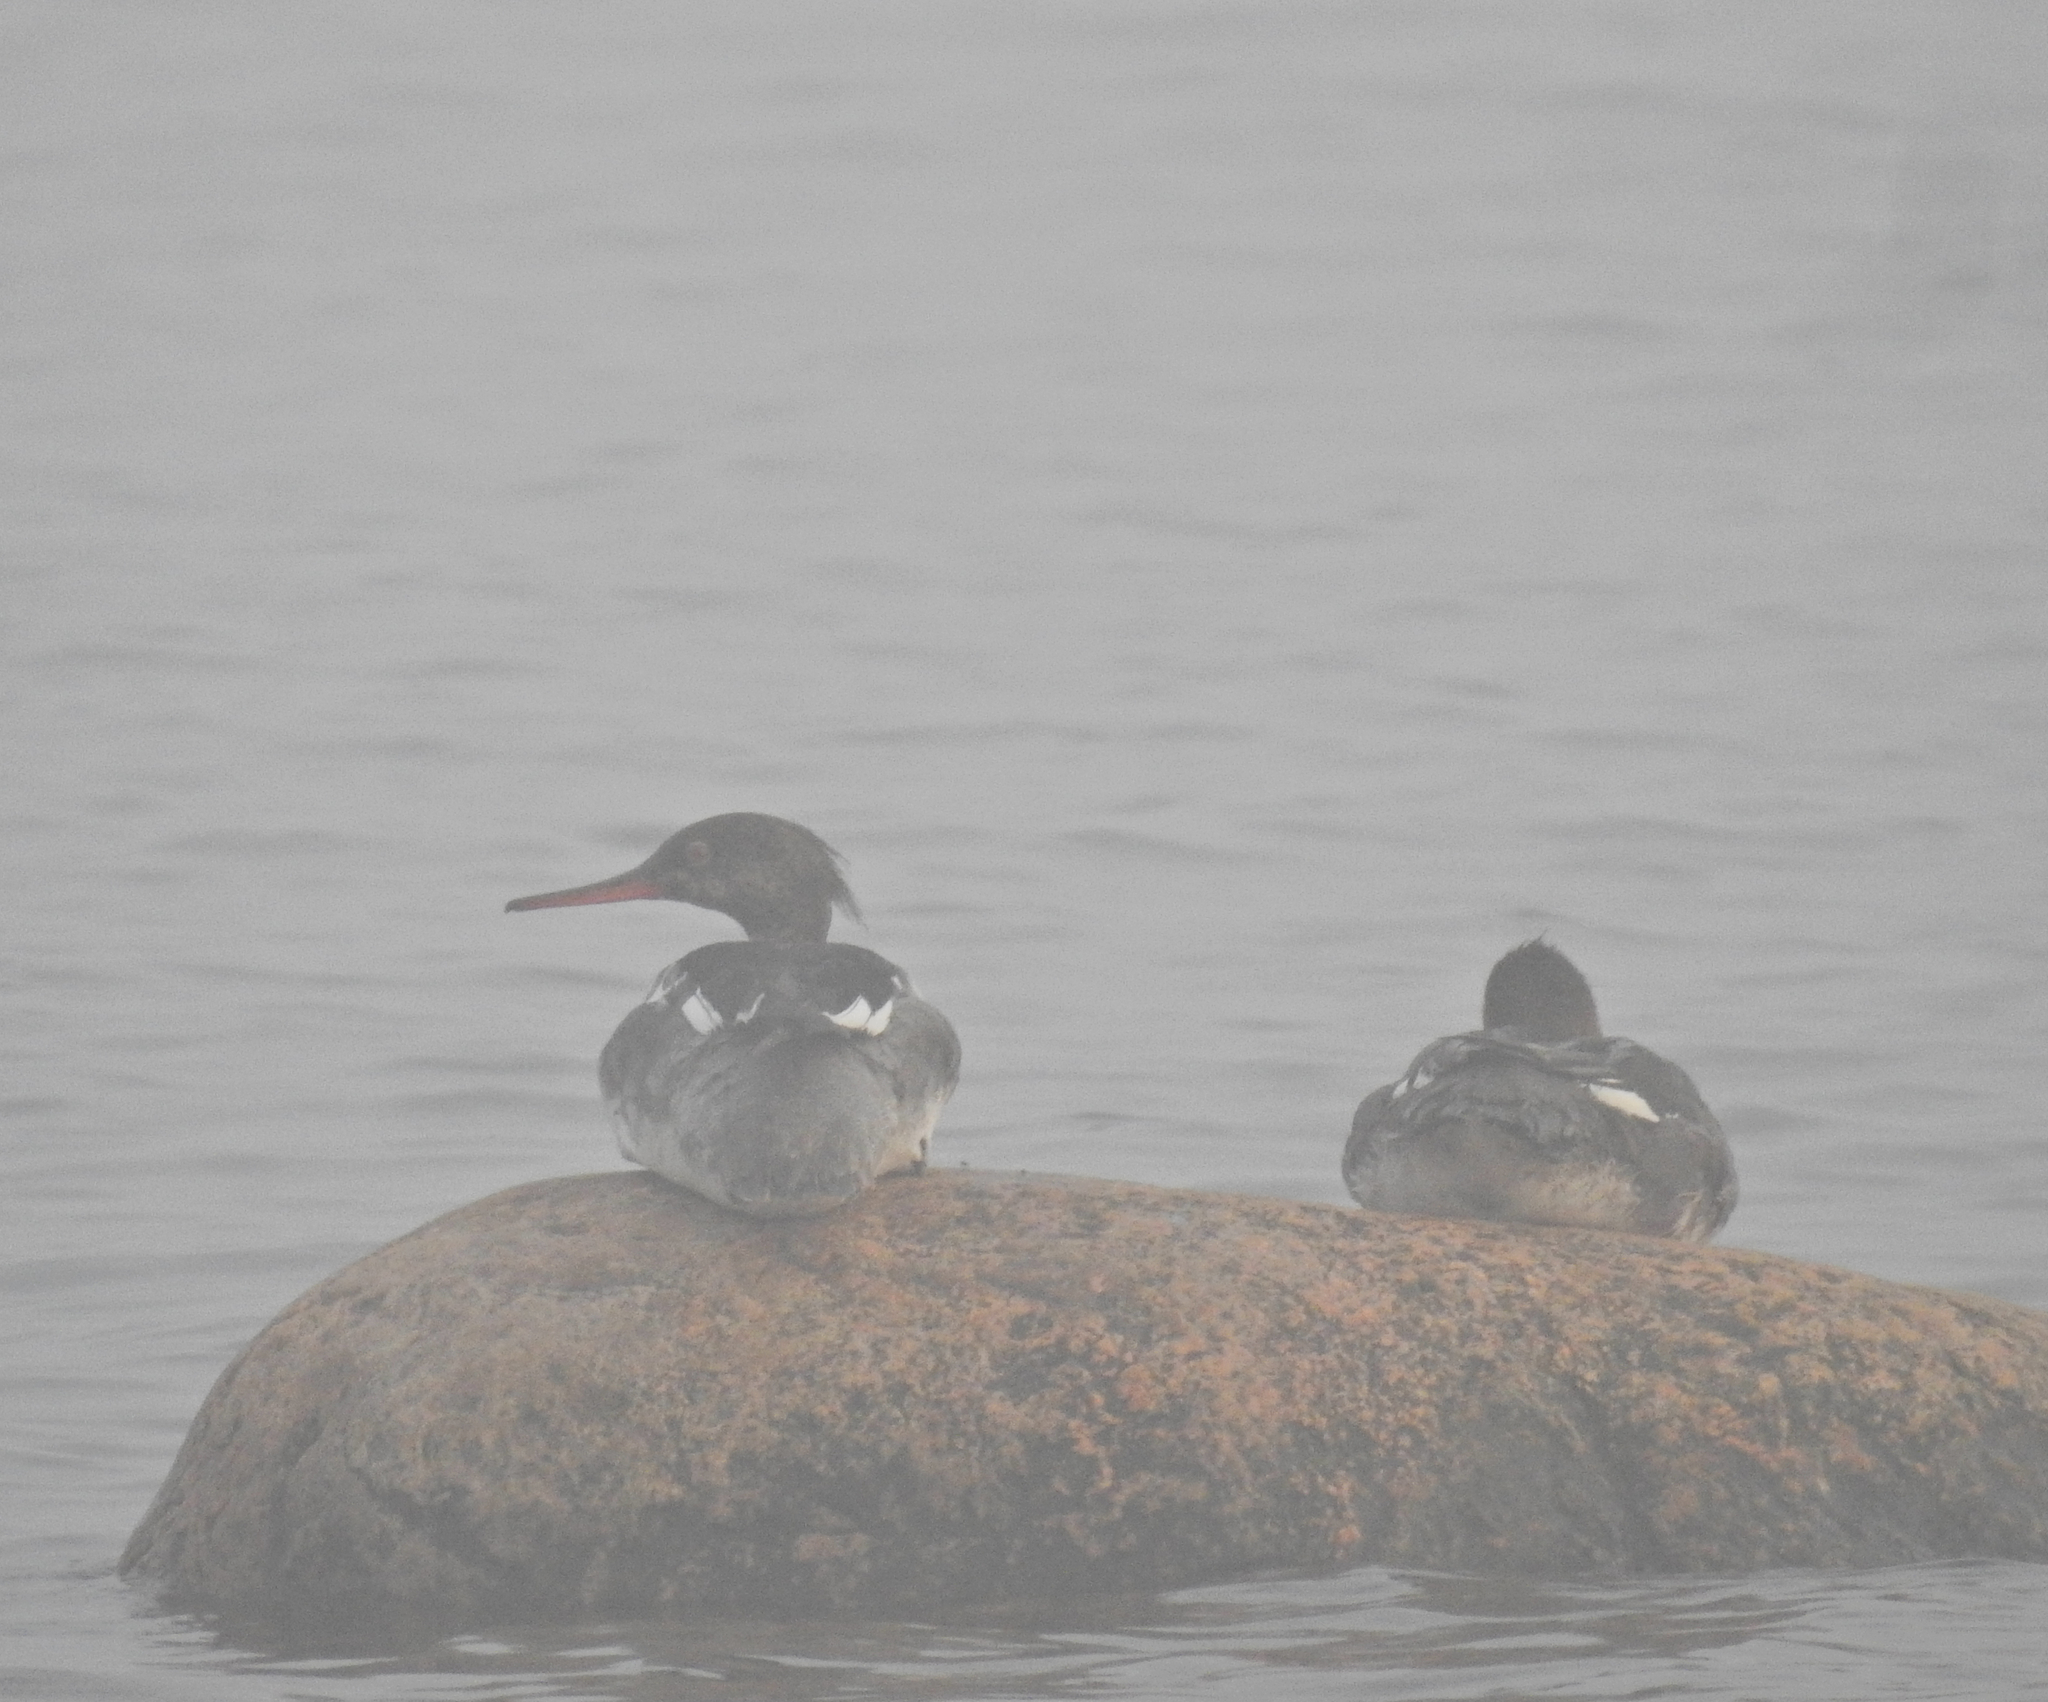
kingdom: Animalia
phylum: Chordata
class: Aves
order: Anseriformes
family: Anatidae
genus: Mergus
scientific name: Mergus serrator
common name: Red-breasted merganser
